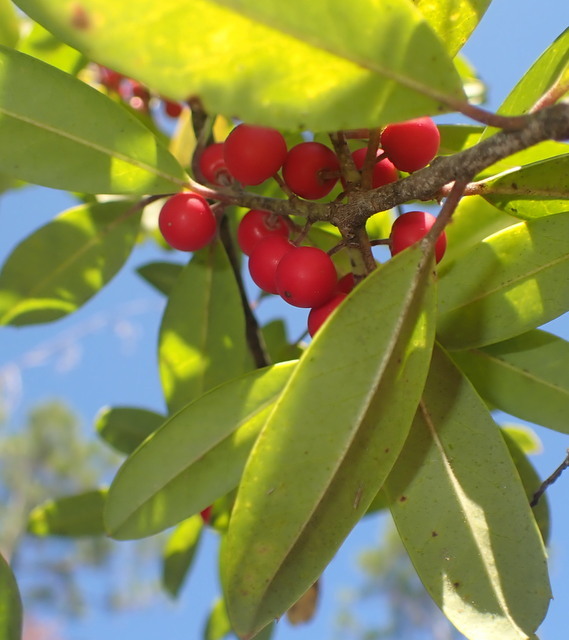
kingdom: Plantae
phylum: Tracheophyta
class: Magnoliopsida
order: Aquifoliales
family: Aquifoliaceae
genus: Ilex
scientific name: Ilex cassine
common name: Dahoon
